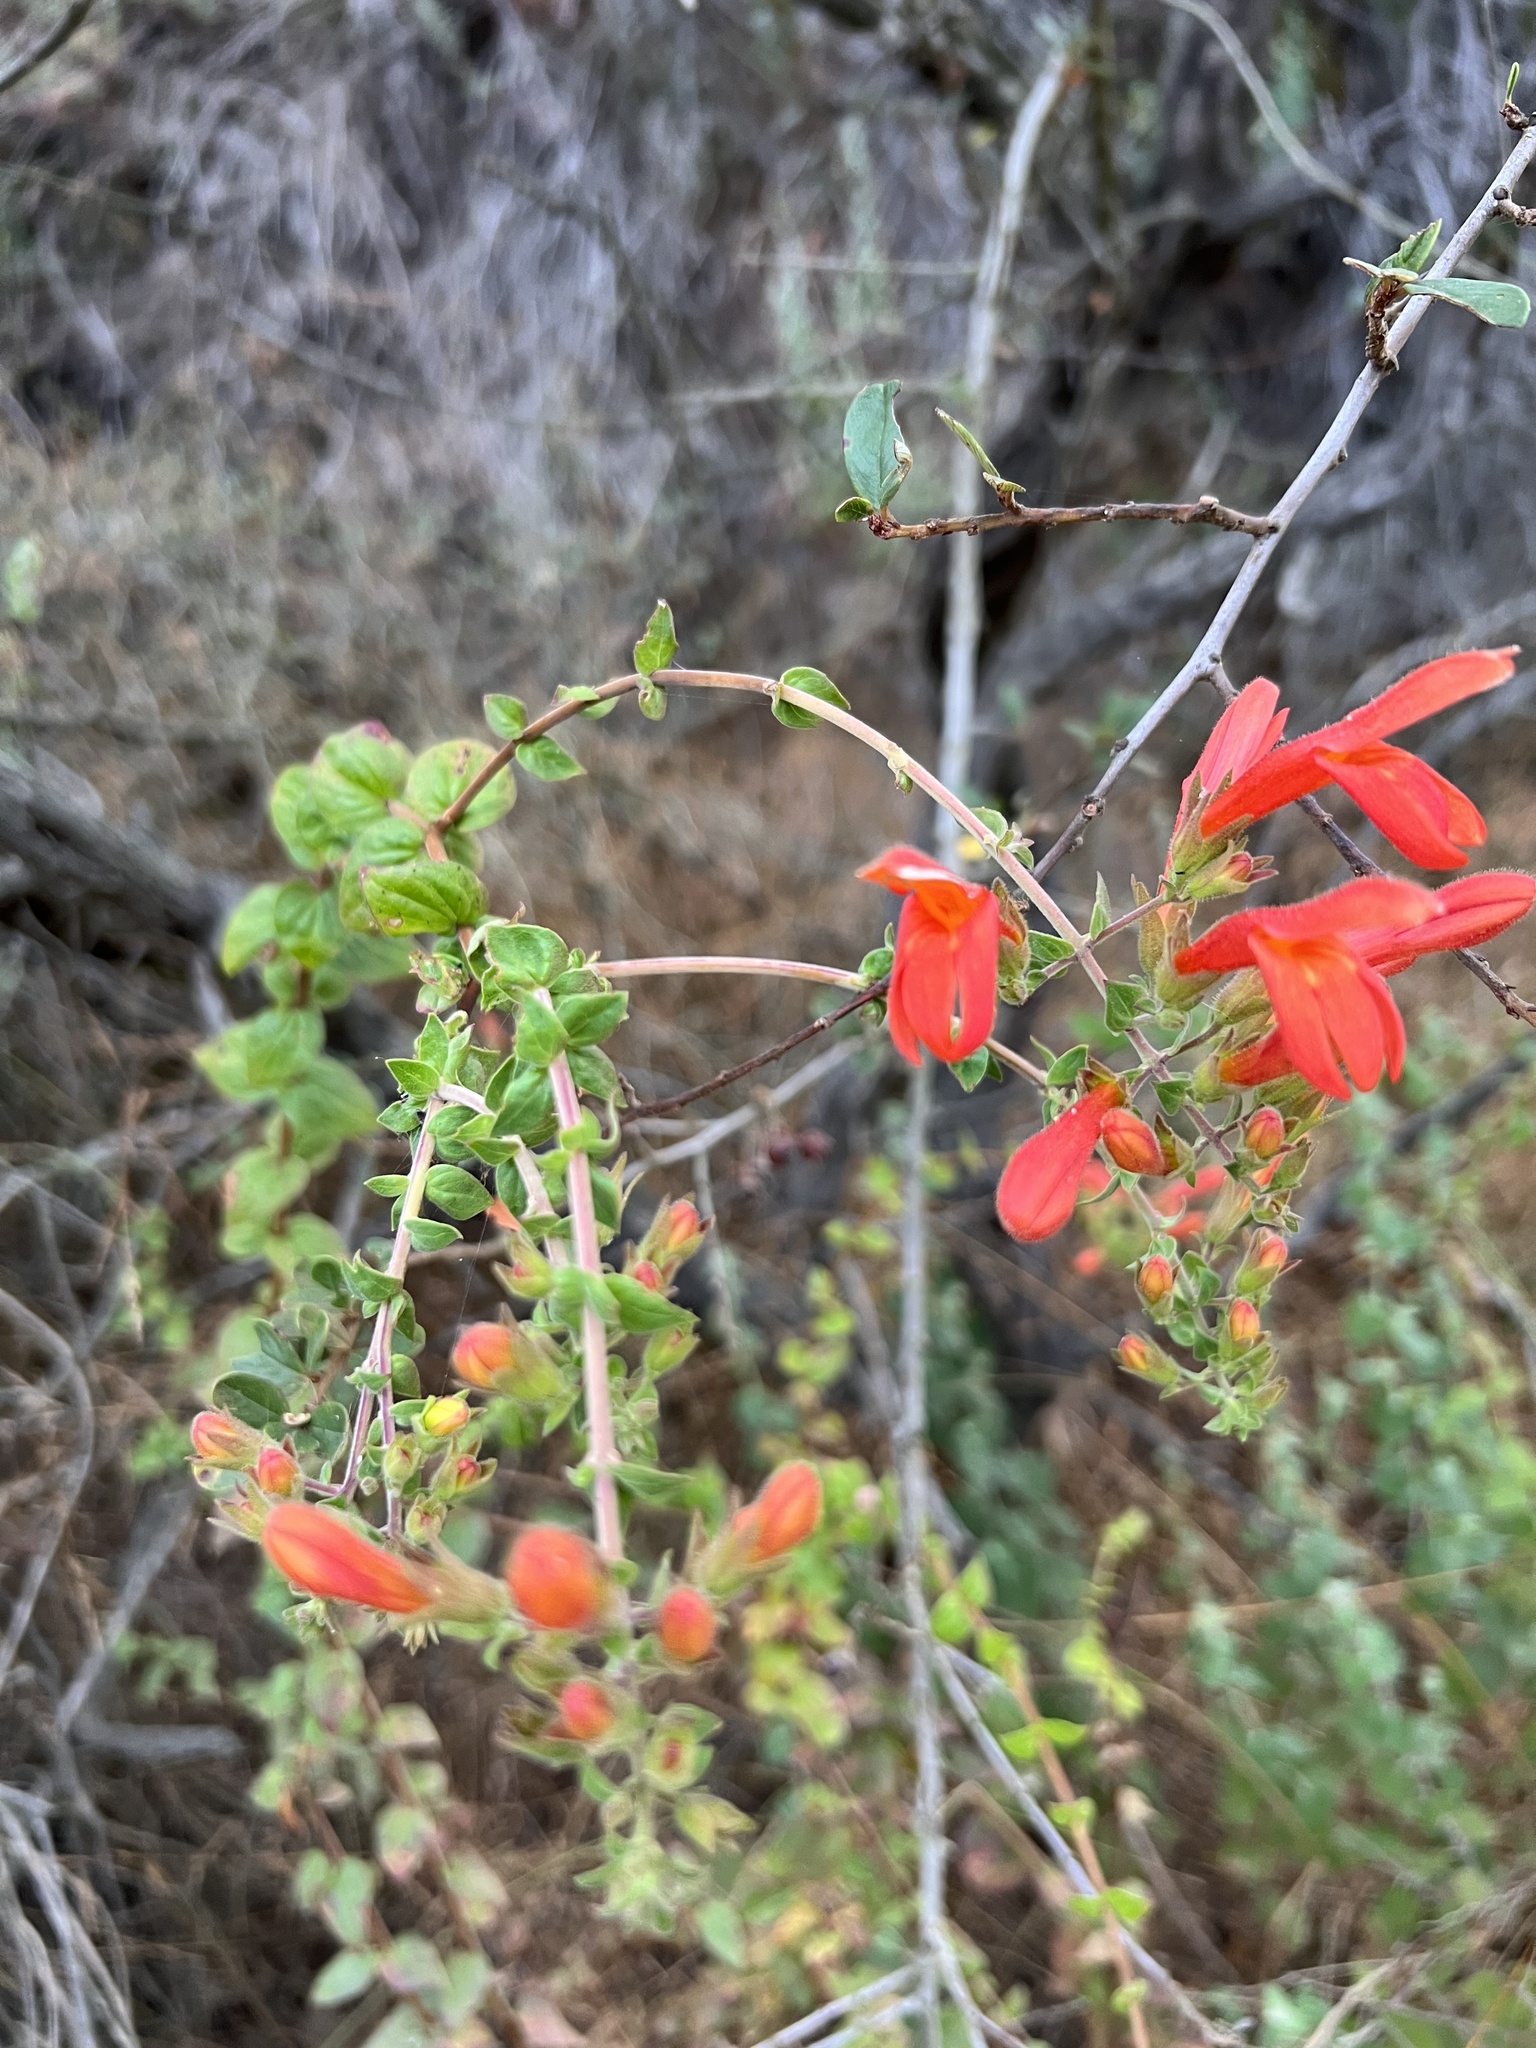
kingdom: Plantae
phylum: Tracheophyta
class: Magnoliopsida
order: Lamiales
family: Plantaginaceae
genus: Keckiella
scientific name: Keckiella cordifolia
